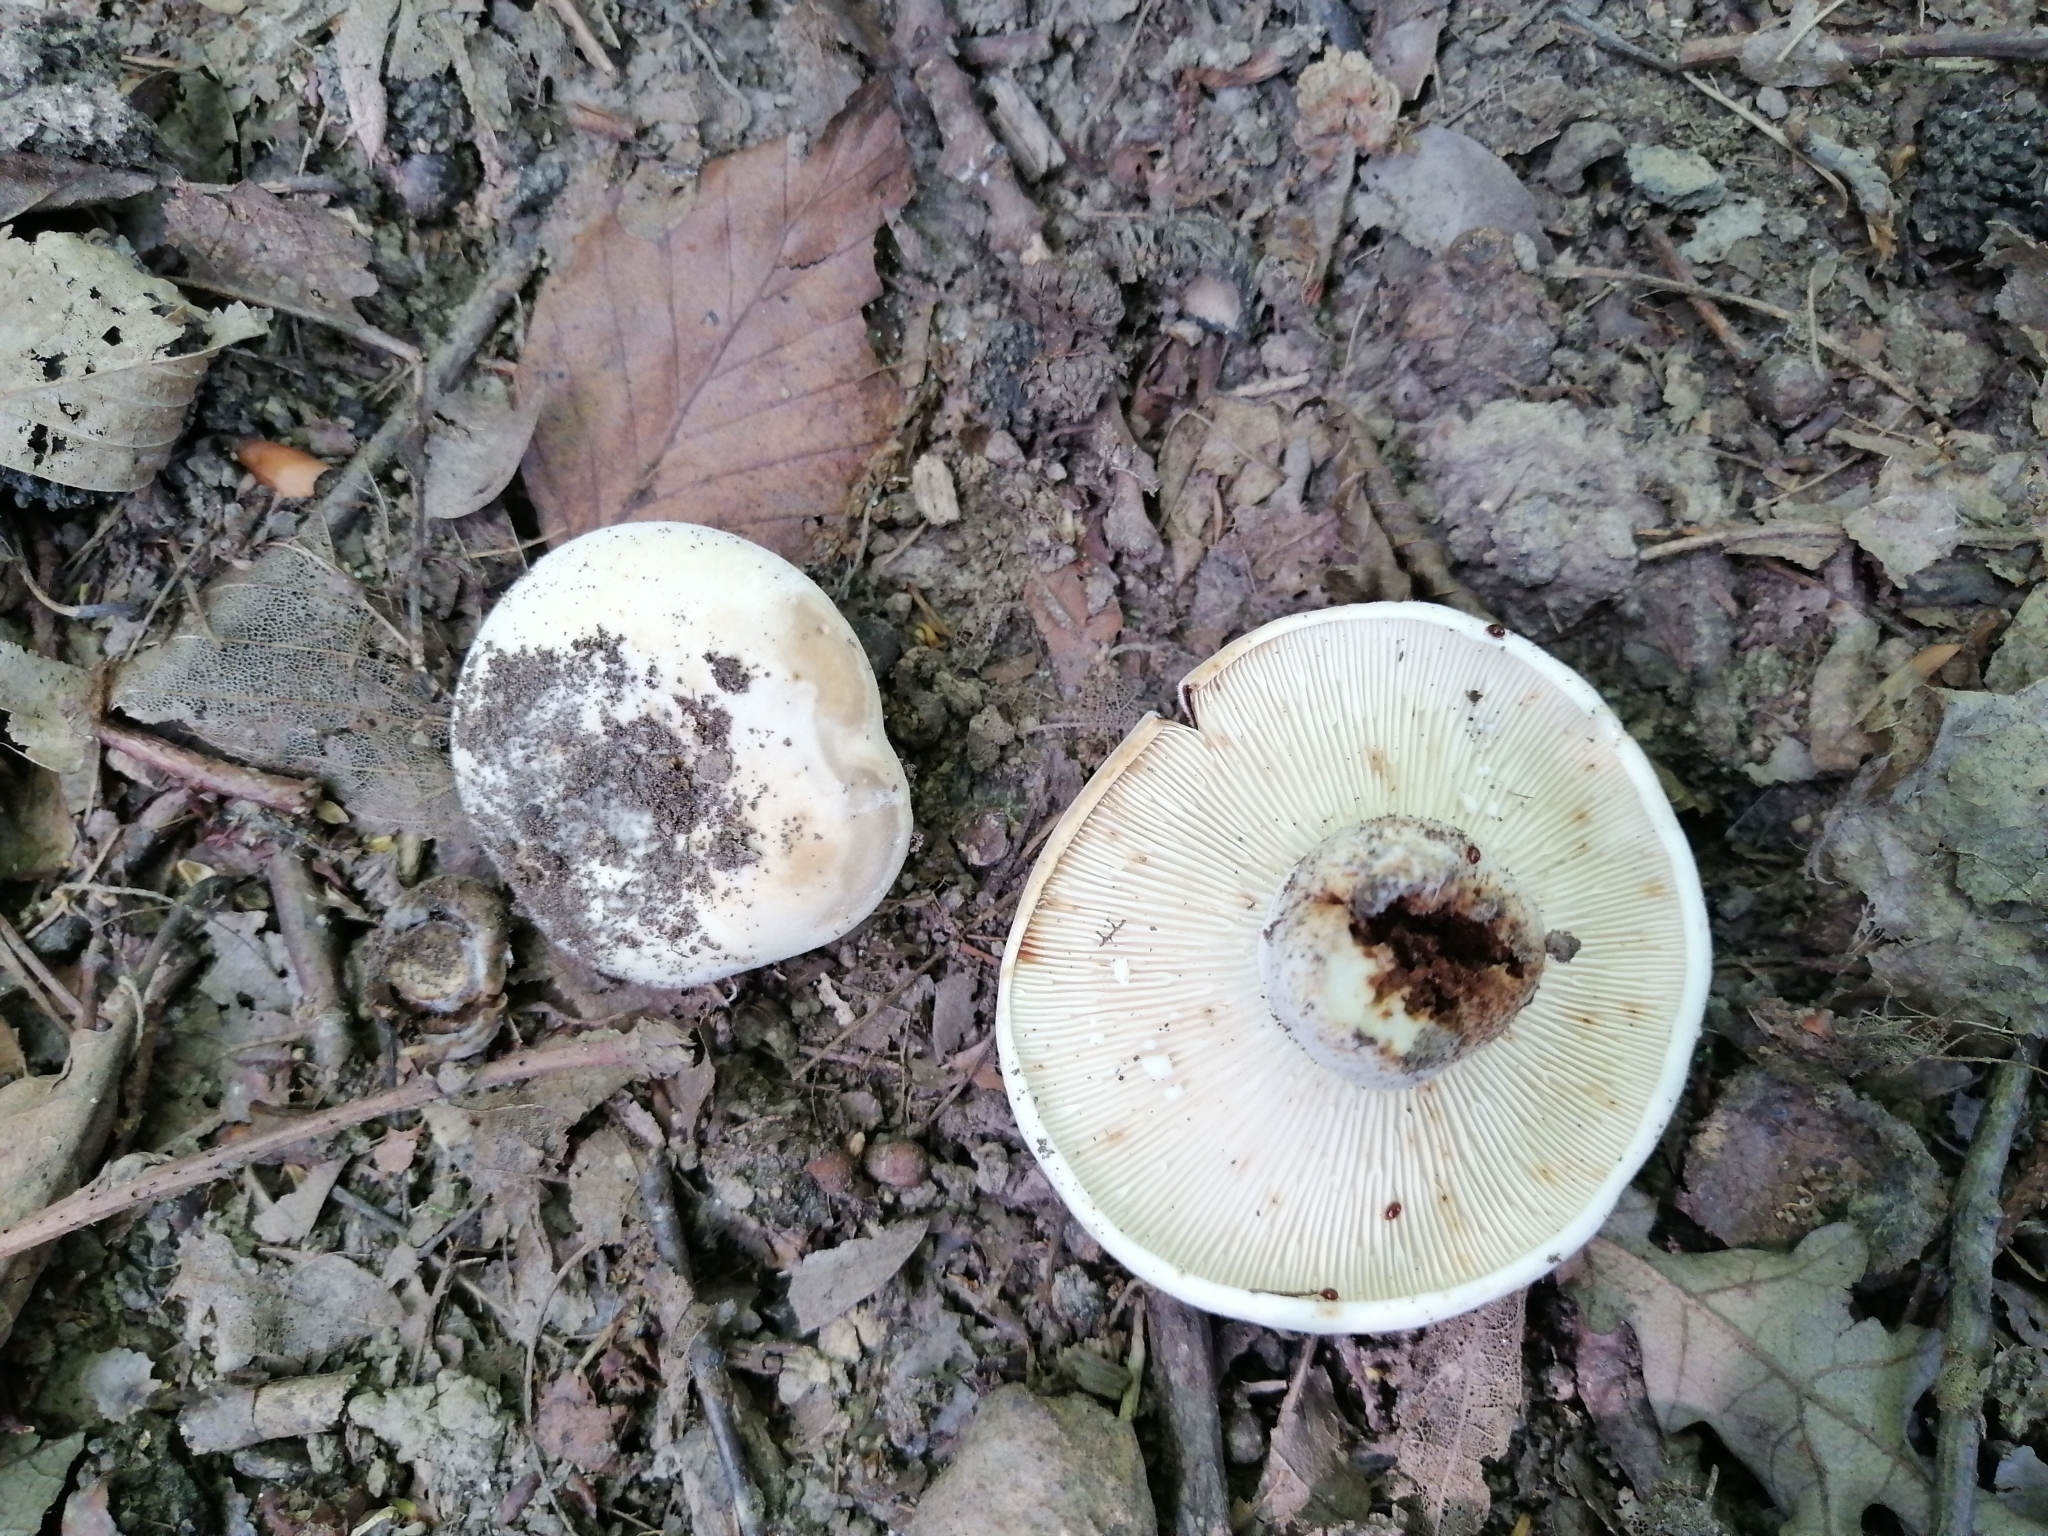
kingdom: Fungi
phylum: Basidiomycota
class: Agaricomycetes
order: Russulales
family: Russulaceae
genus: Lactifluus
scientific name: Lactifluus vellereus
